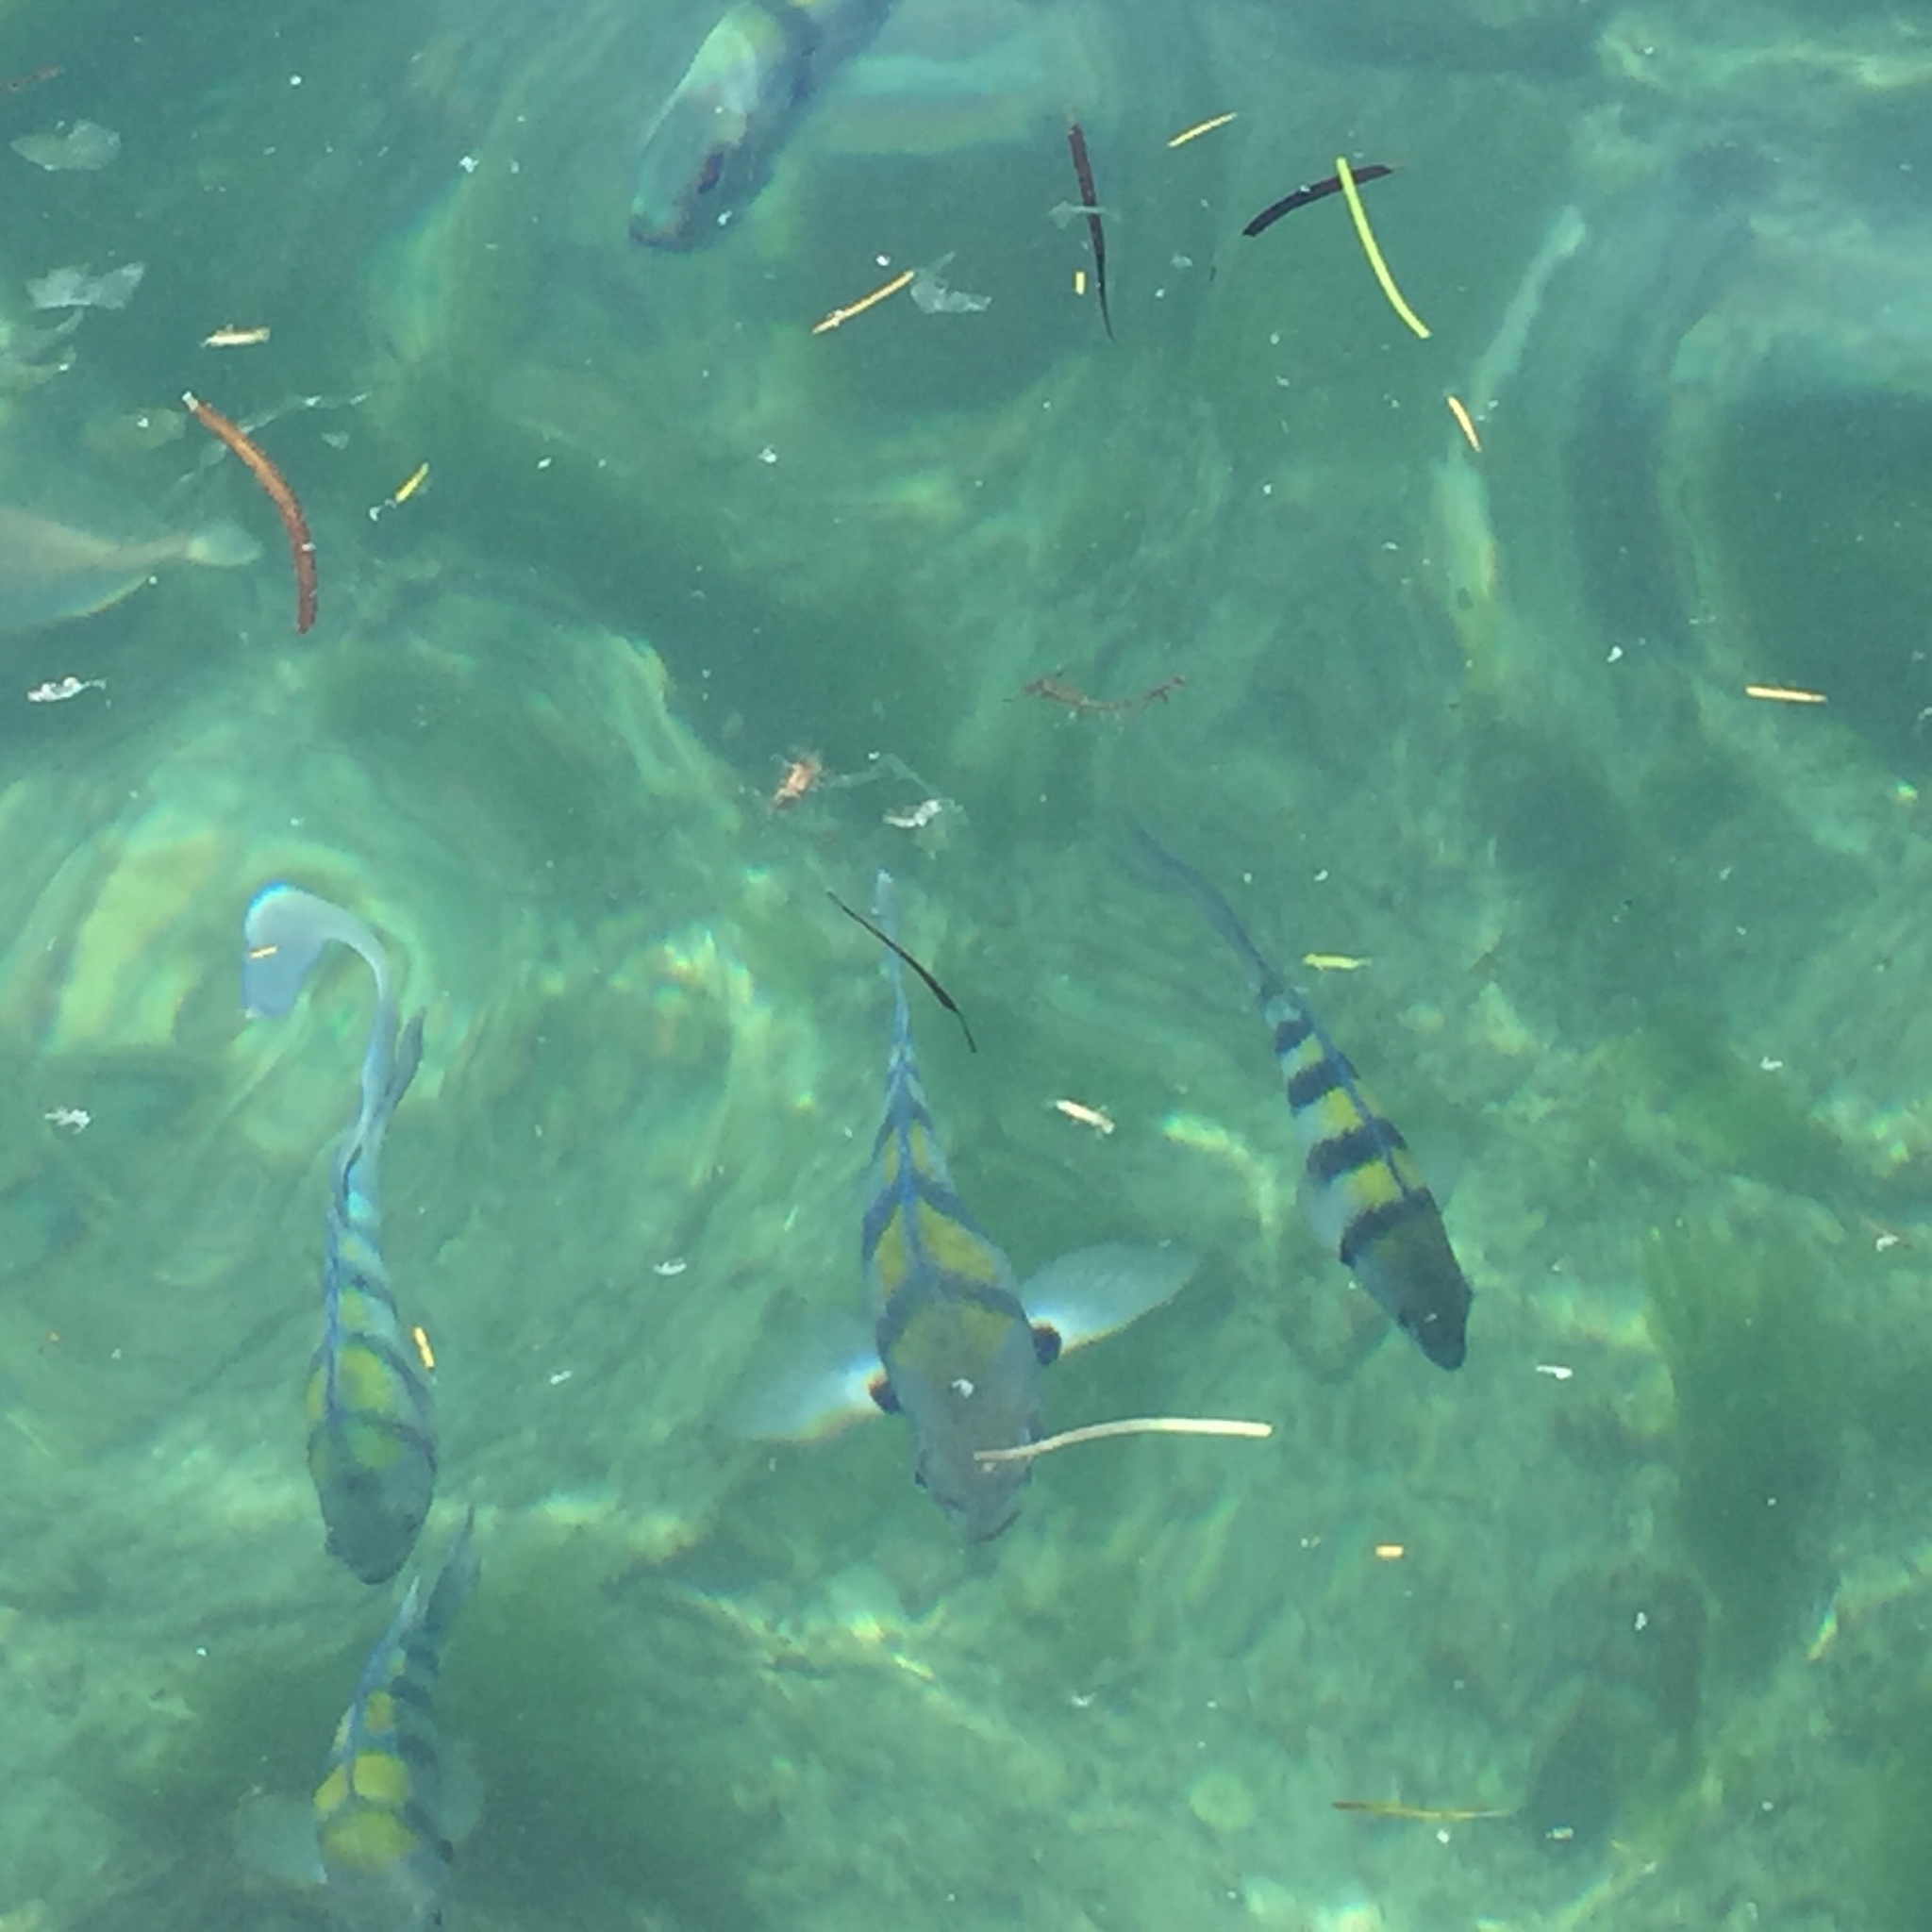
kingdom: Animalia
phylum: Chordata
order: Perciformes
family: Pomacentridae
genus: Abudefduf
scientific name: Abudefduf vaigiensis
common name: Indo-pacific sergeant
